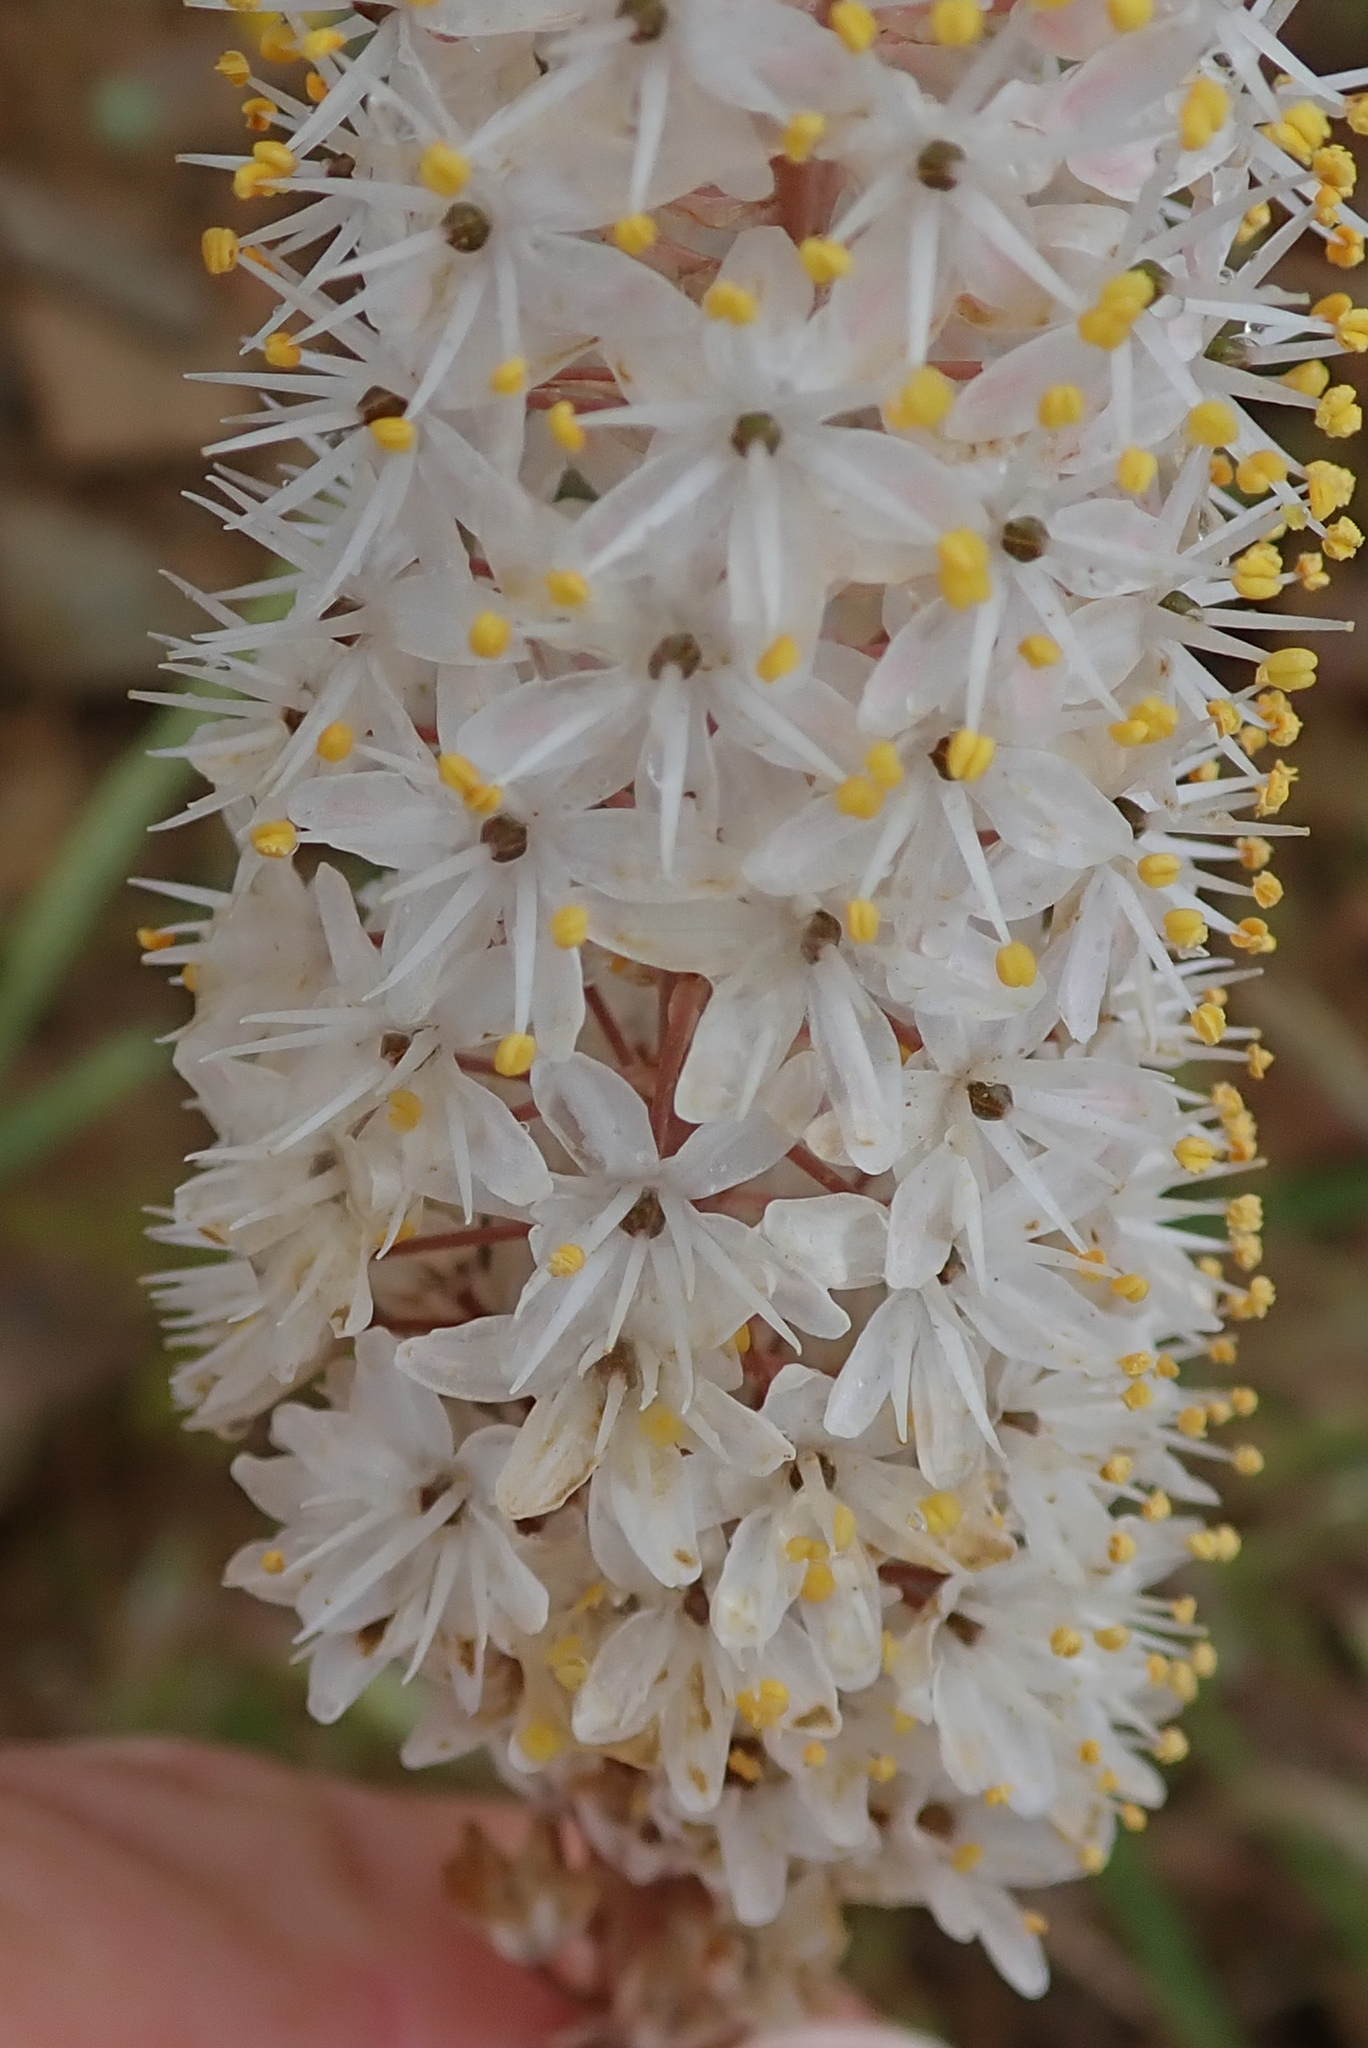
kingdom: Plantae
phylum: Tracheophyta
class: Liliopsida
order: Asparagales
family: Asphodelaceae
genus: Bulbinella
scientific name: Bulbinella cauda-felis
